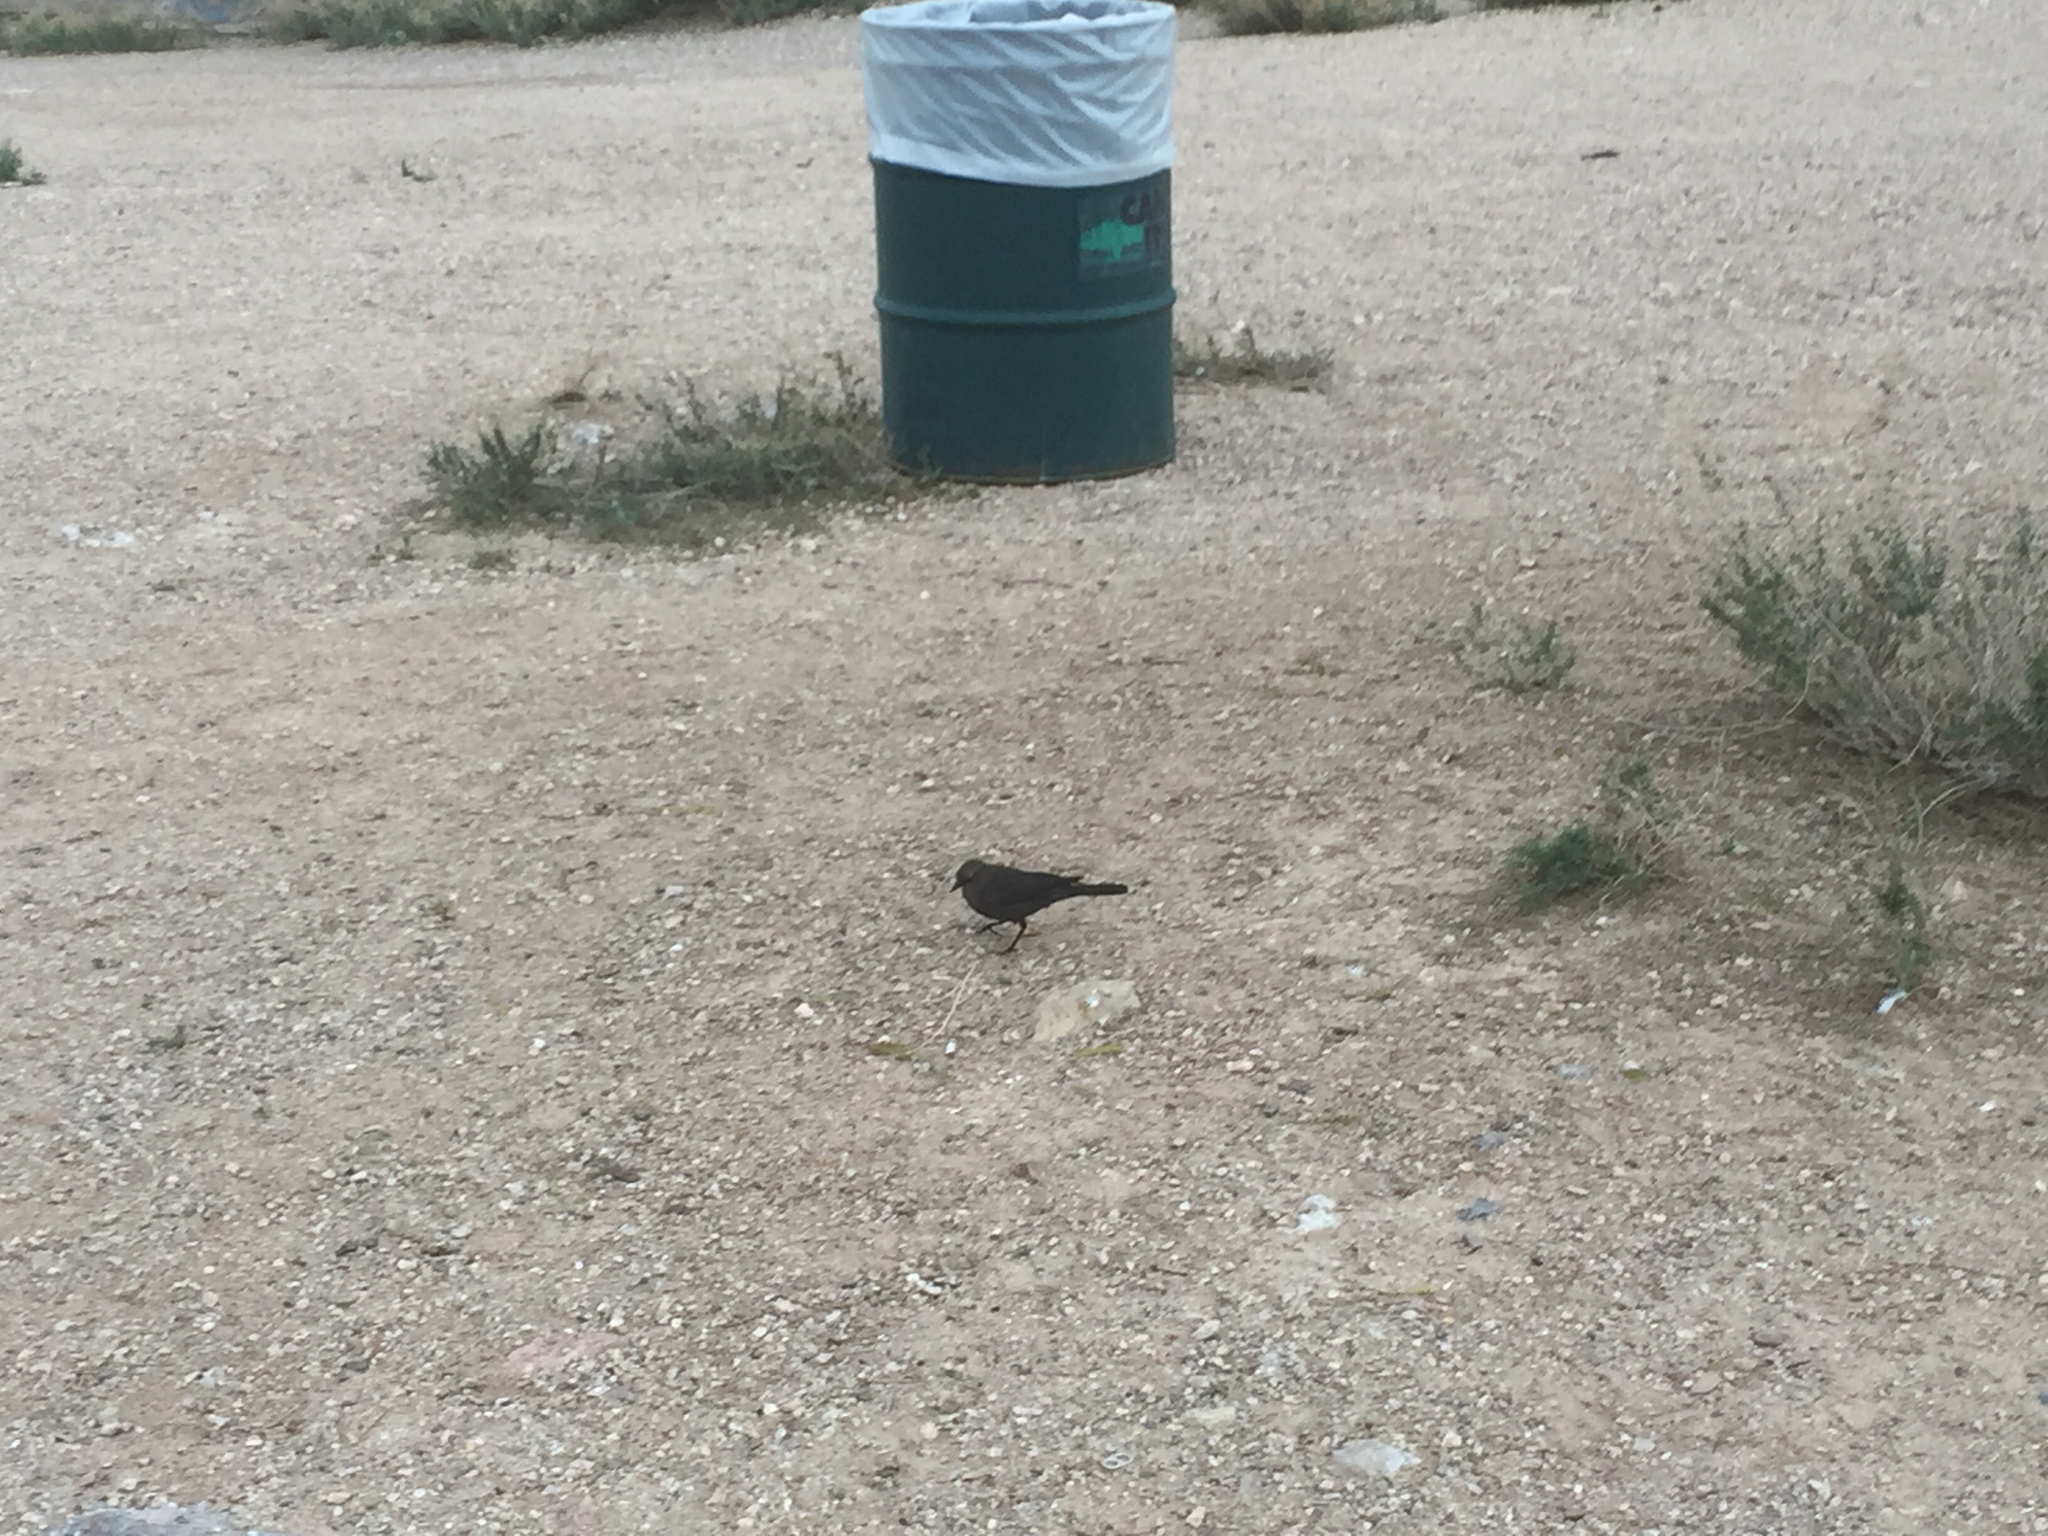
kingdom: Animalia
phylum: Chordata
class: Aves
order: Passeriformes
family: Icteridae
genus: Euphagus
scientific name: Euphagus cyanocephalus
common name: Brewer's blackbird
